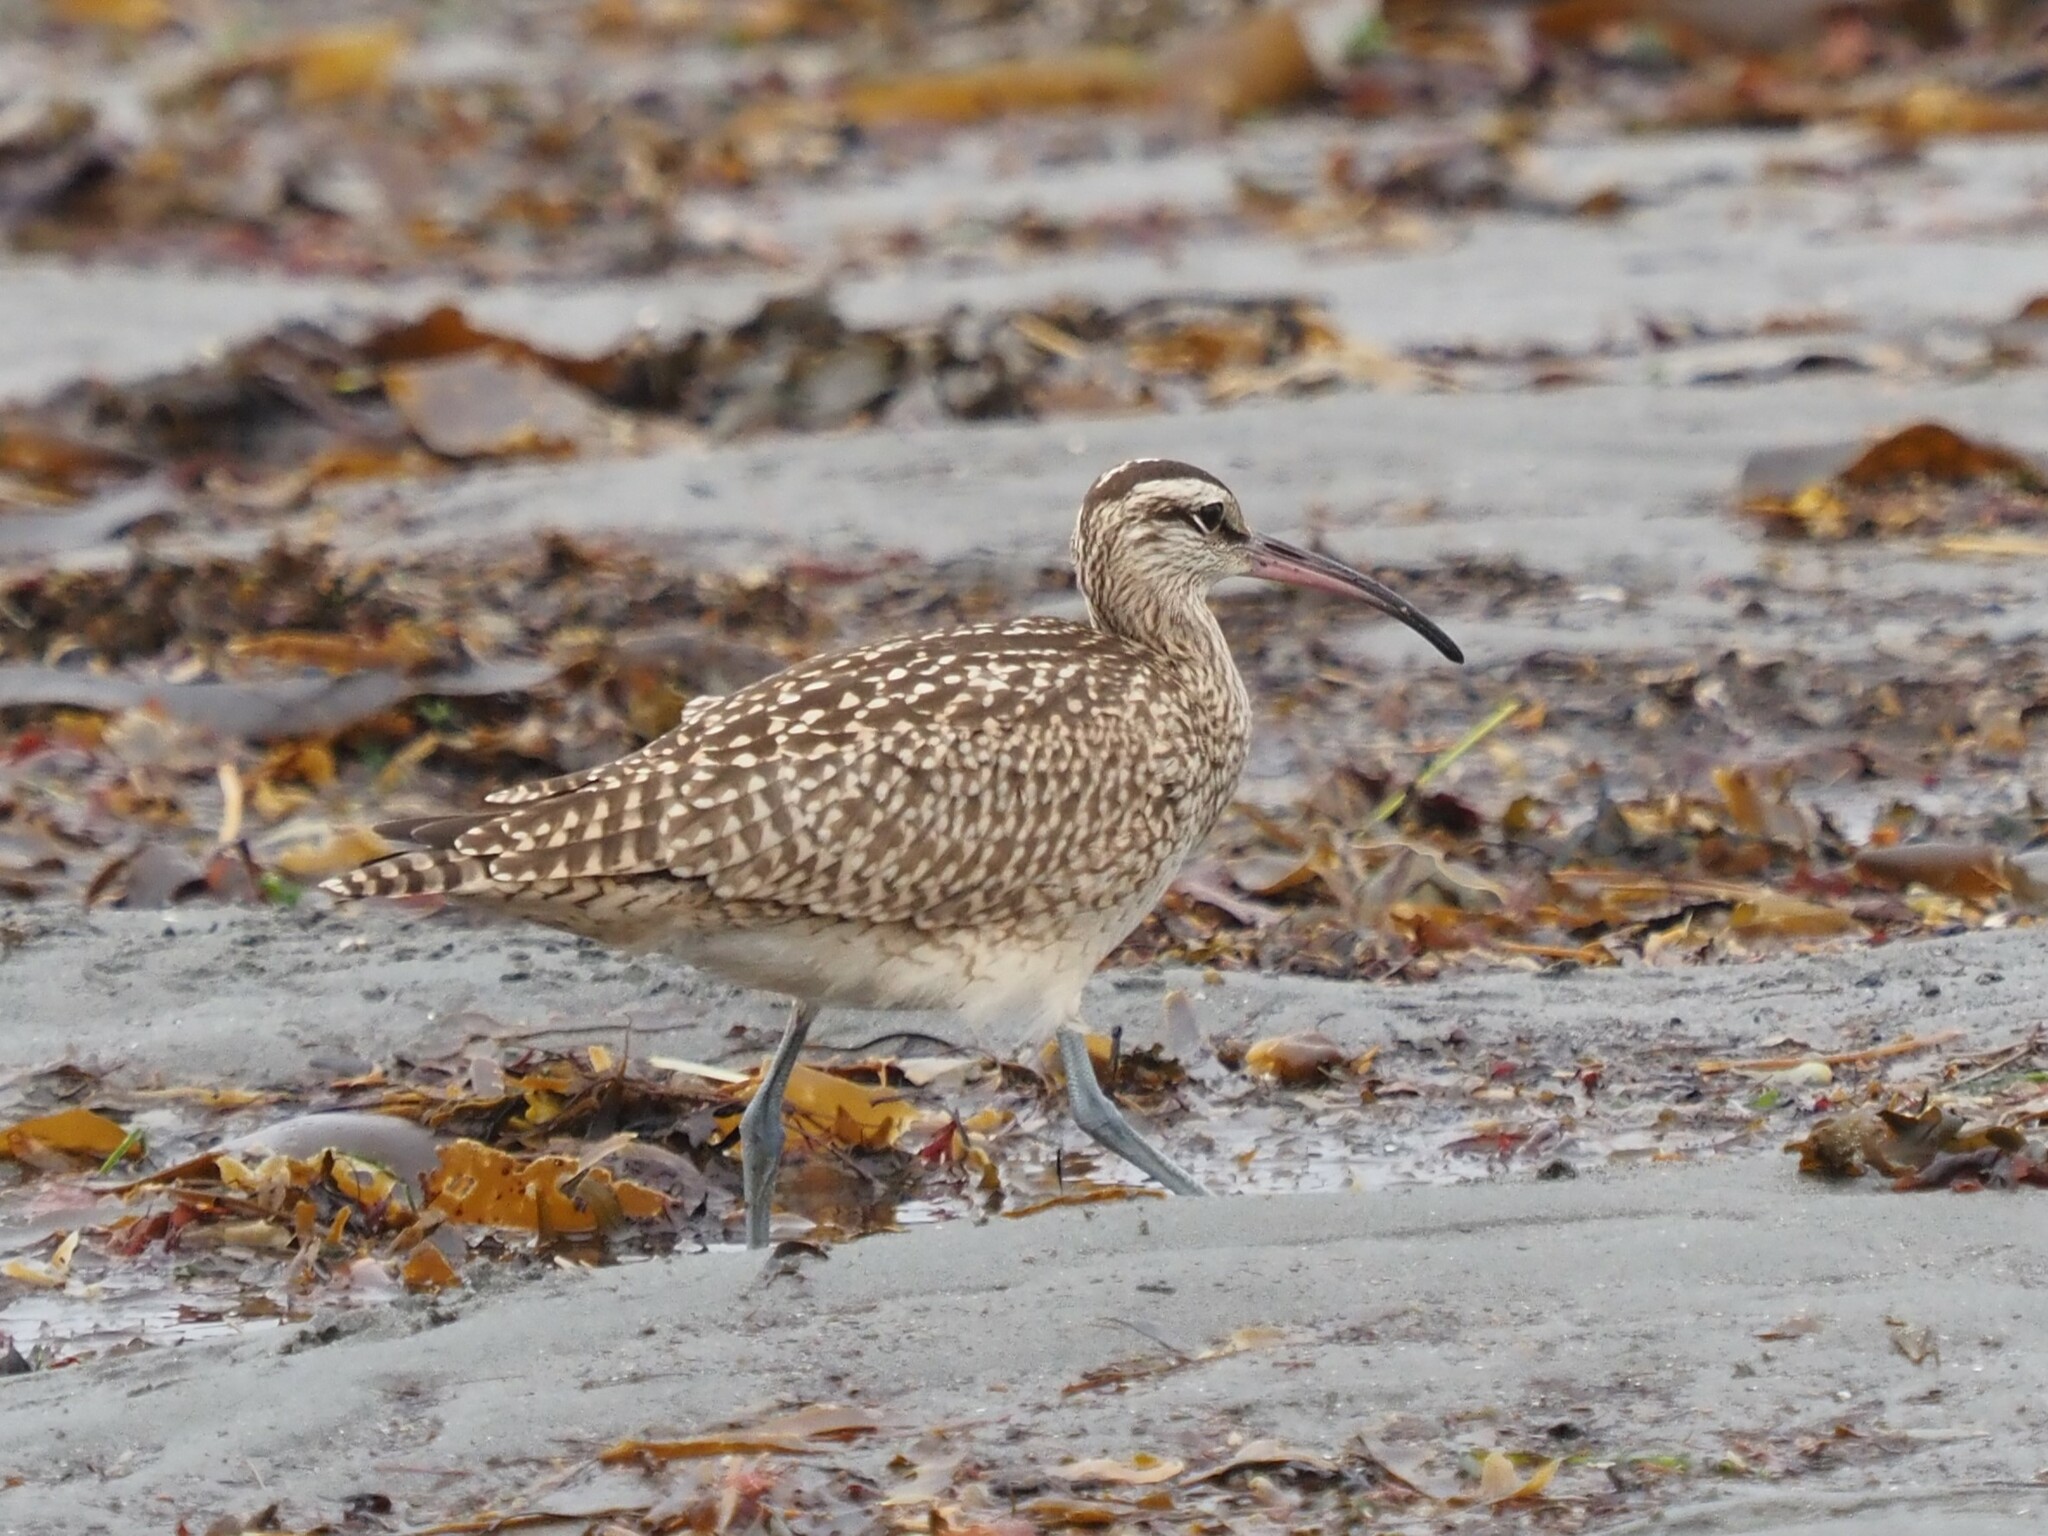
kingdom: Animalia
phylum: Chordata
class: Aves
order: Charadriiformes
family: Scolopacidae
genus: Numenius
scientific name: Numenius phaeopus
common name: Whimbrel
